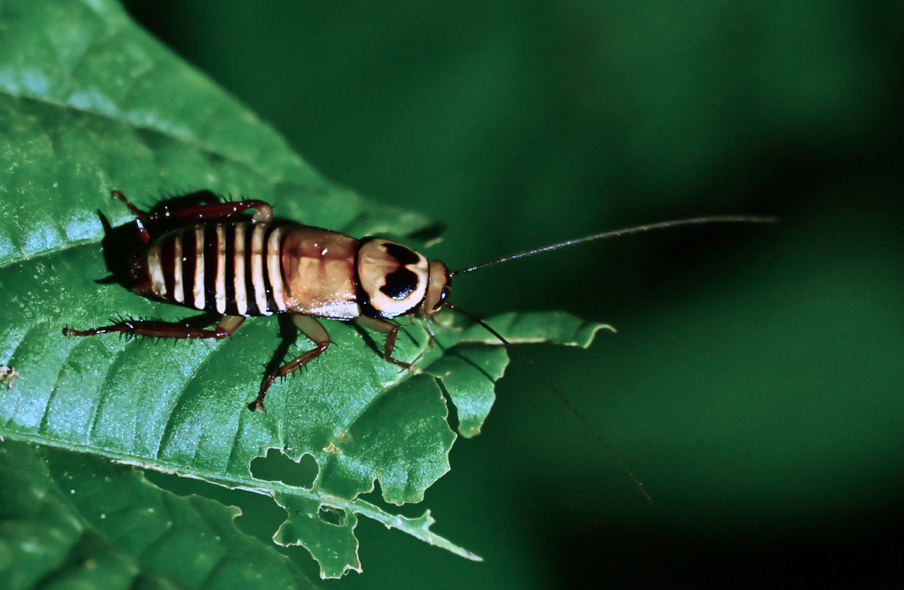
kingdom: Animalia
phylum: Arthropoda
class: Insecta
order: Blattodea
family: Blattidae
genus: Eurycotis
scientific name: Eurycotis decipiens
